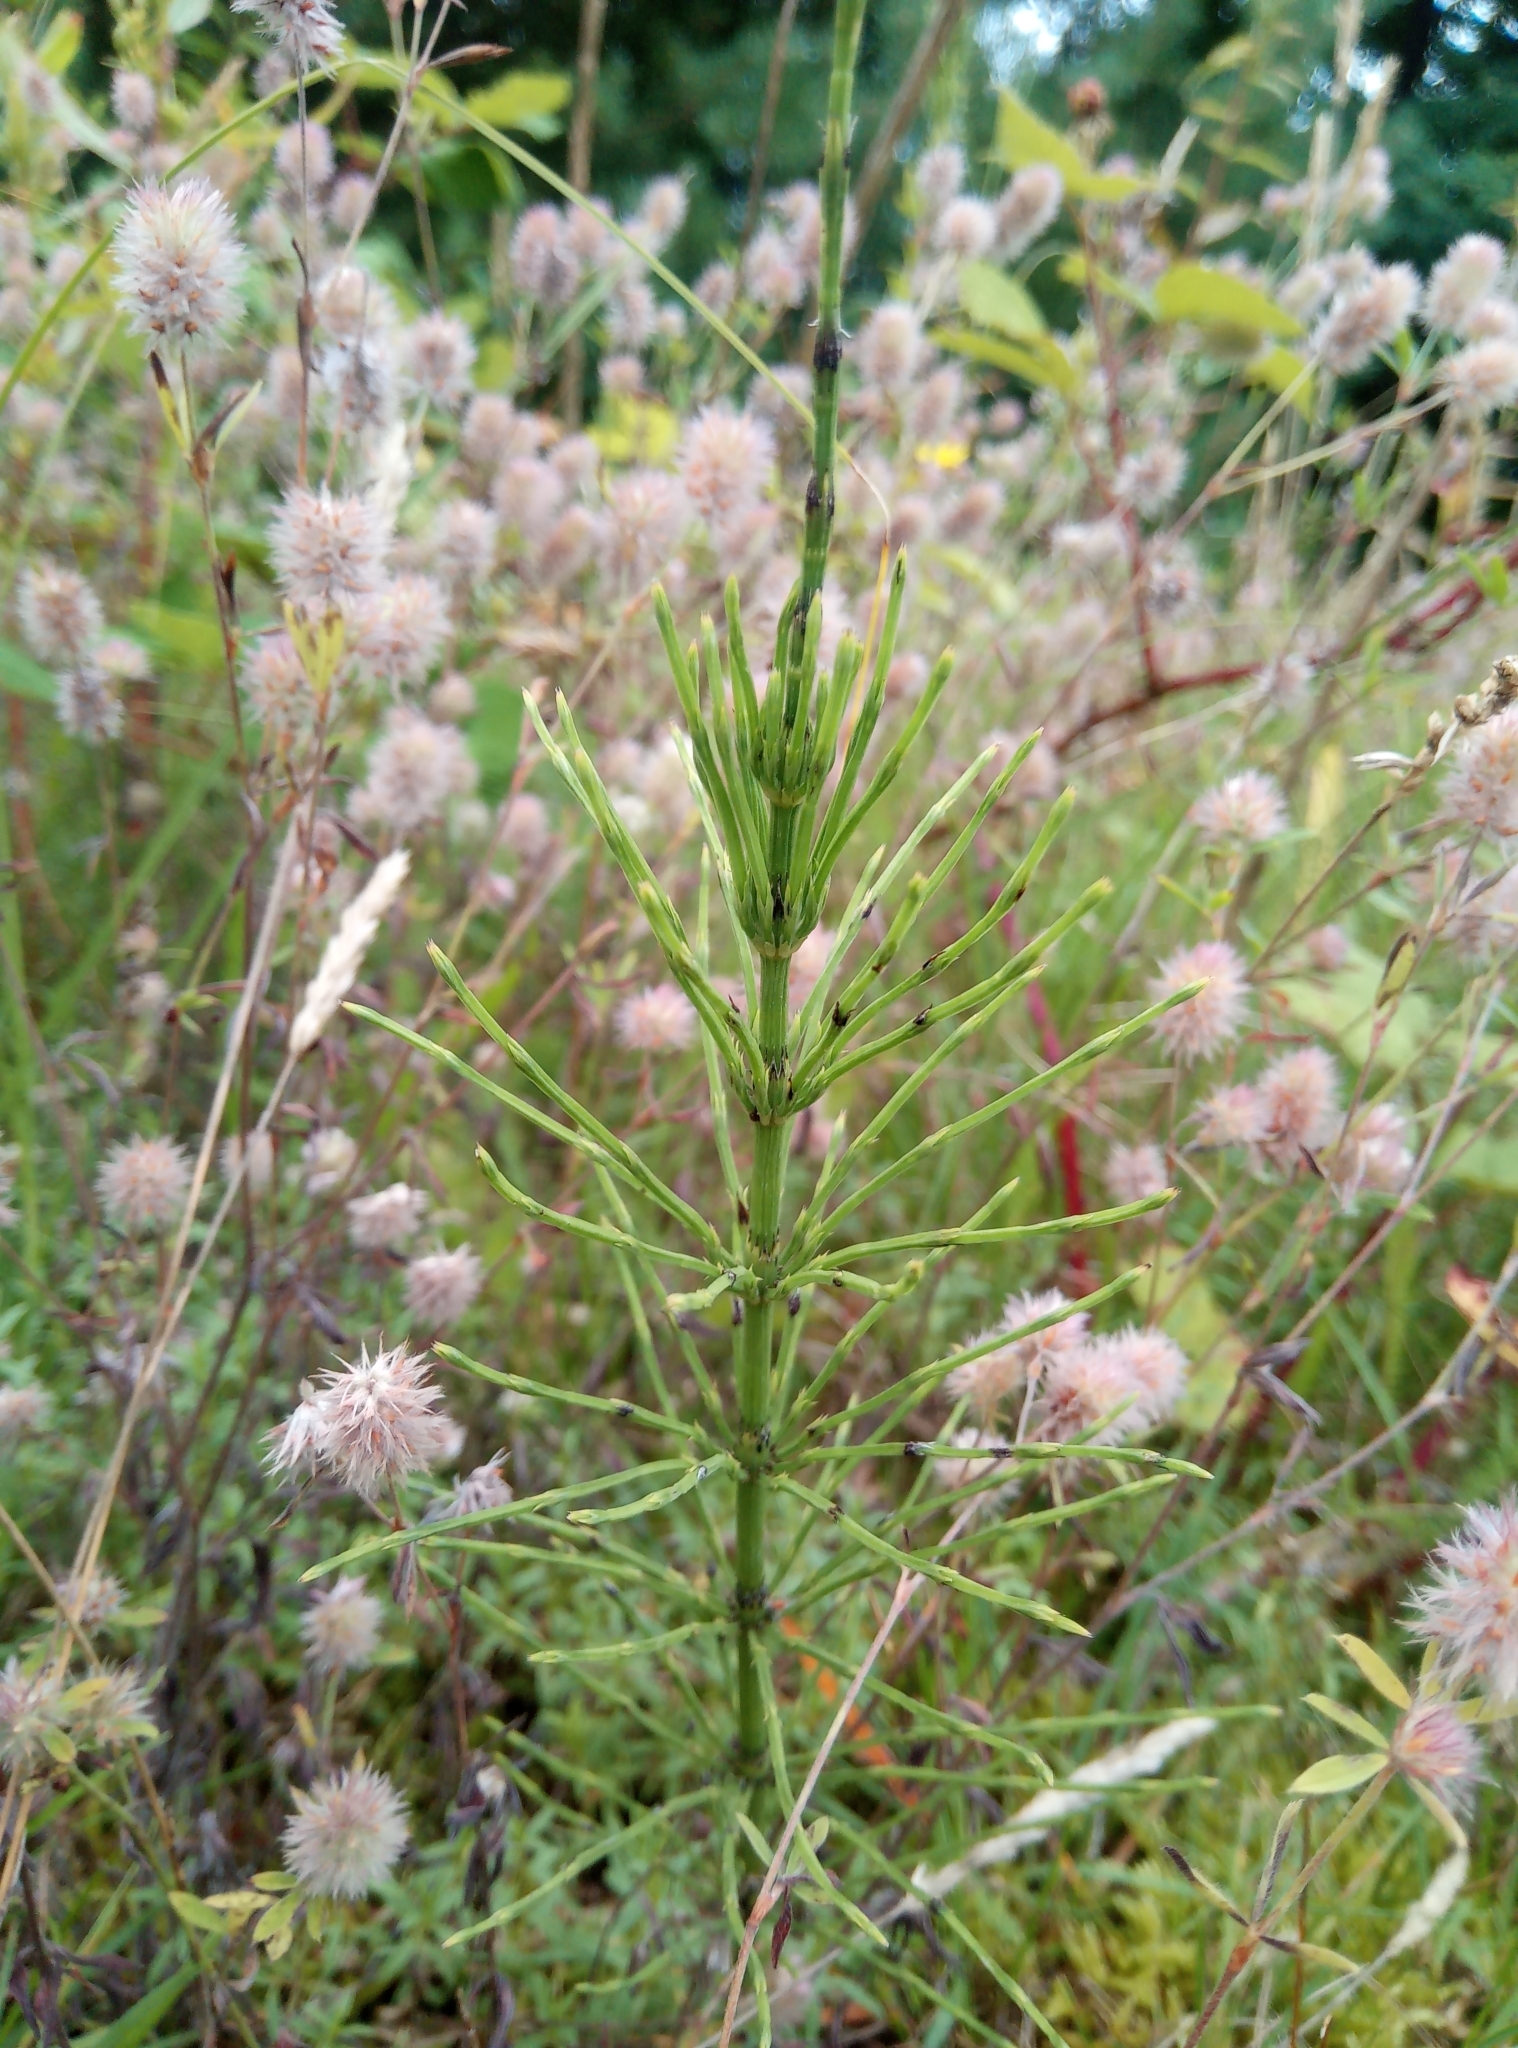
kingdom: Plantae
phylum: Tracheophyta
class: Polypodiopsida
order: Equisetales
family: Equisetaceae
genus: Equisetum
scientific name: Equisetum arvense
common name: Field horsetail
